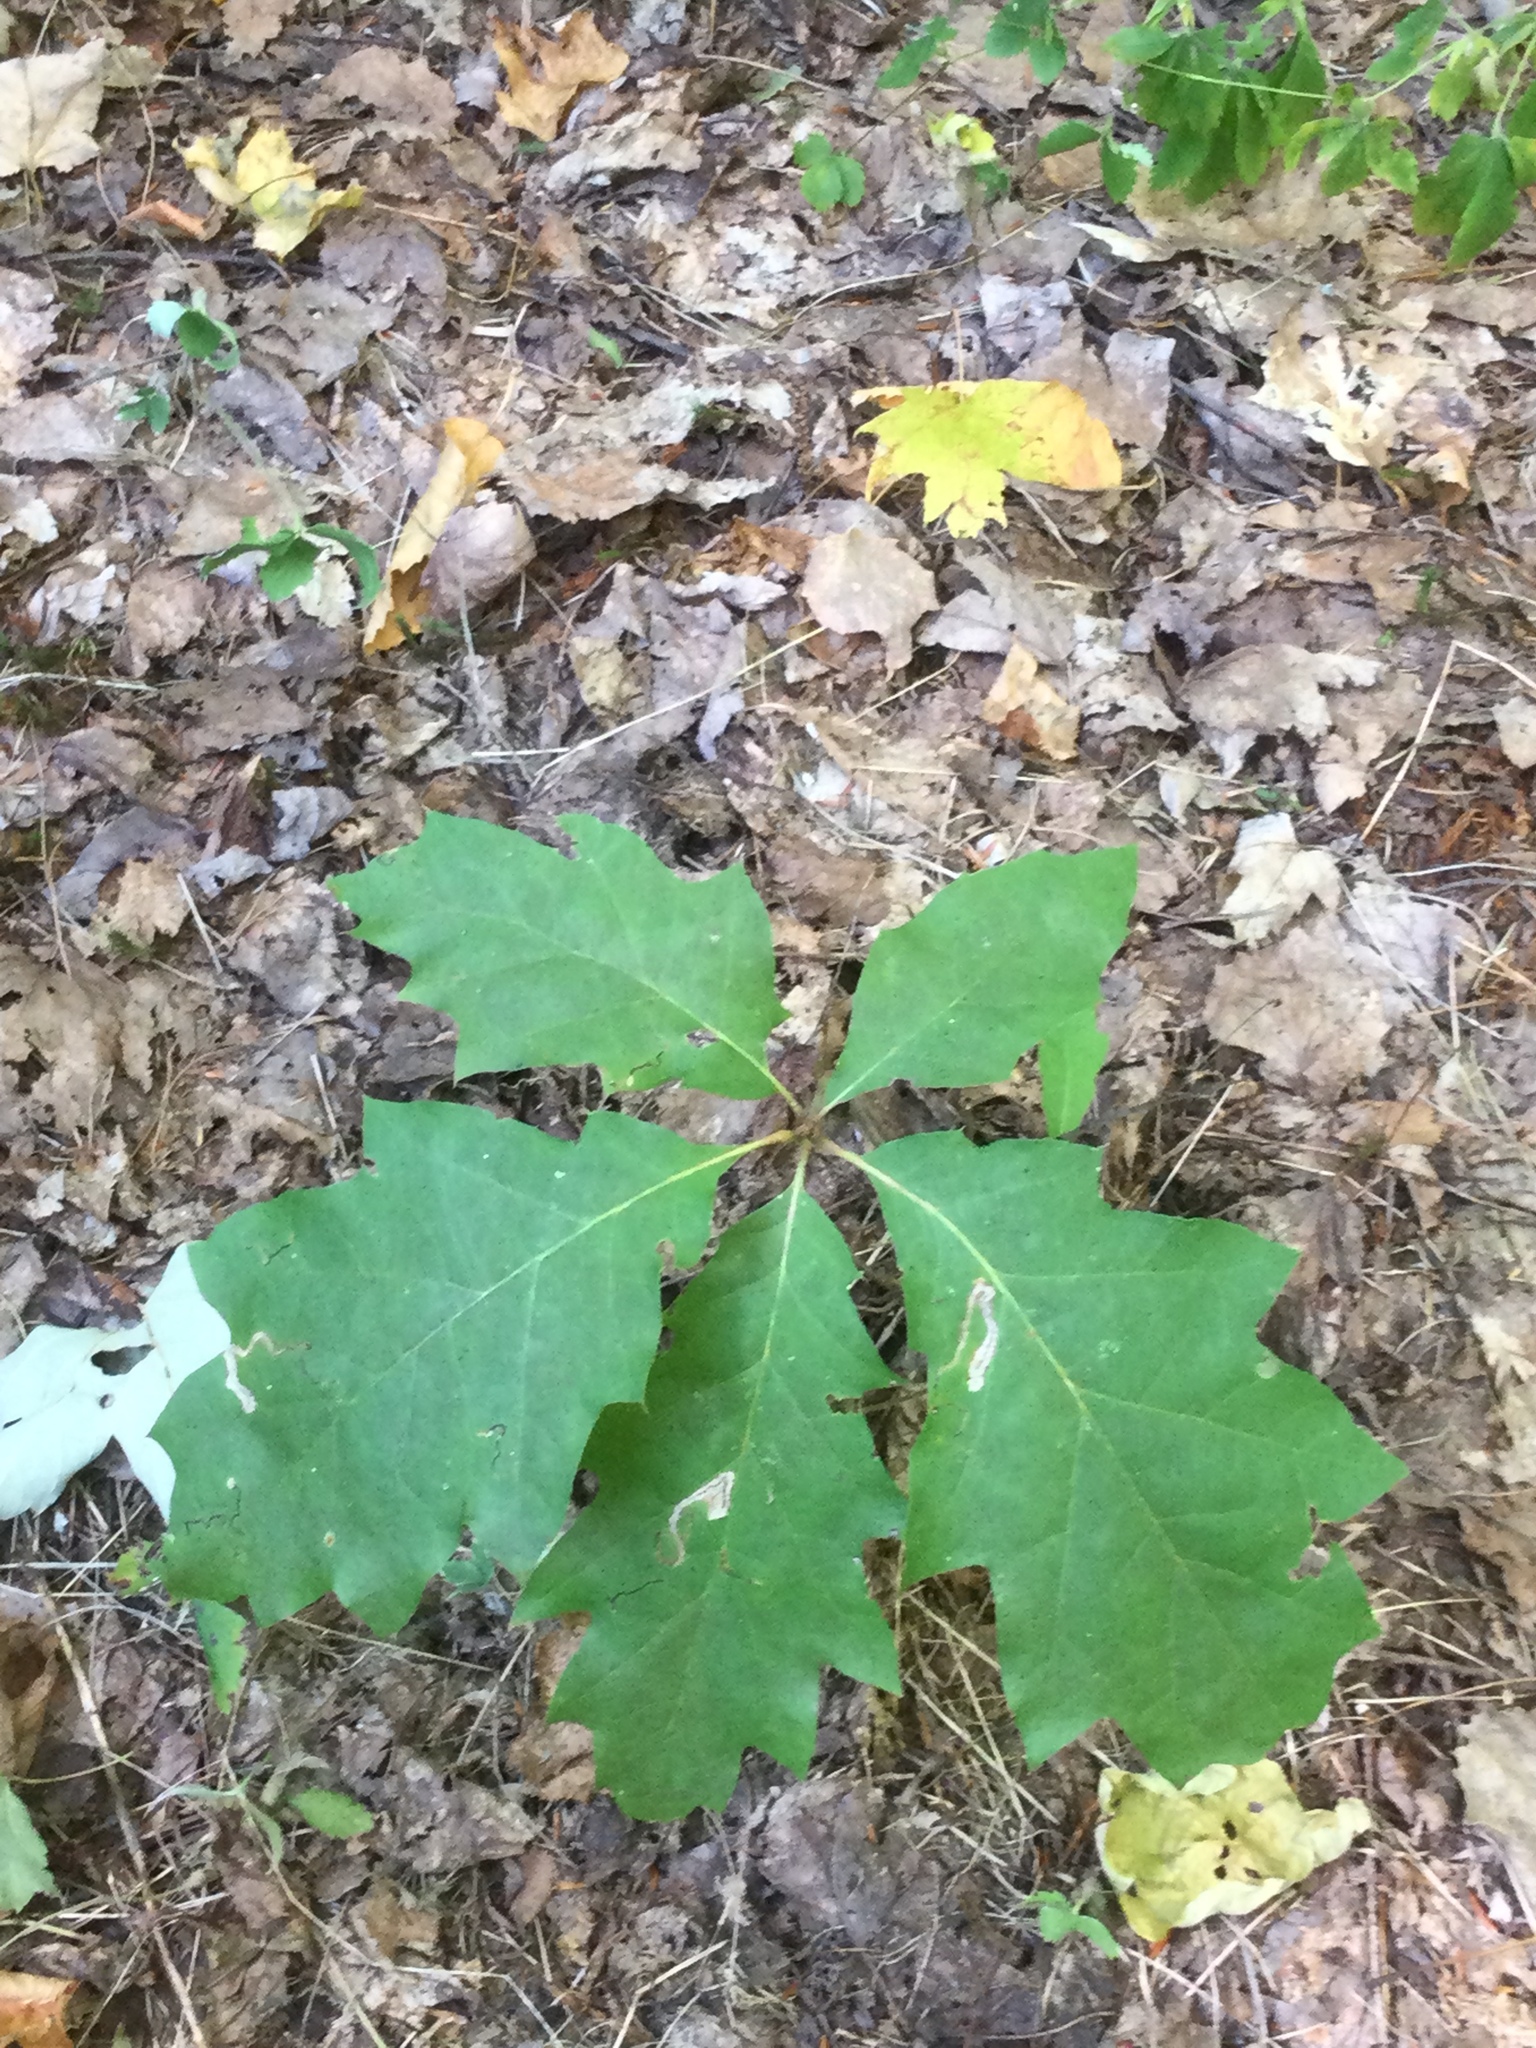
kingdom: Plantae
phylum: Tracheophyta
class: Magnoliopsida
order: Fagales
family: Fagaceae
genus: Quercus
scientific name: Quercus rubra
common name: Red oak
